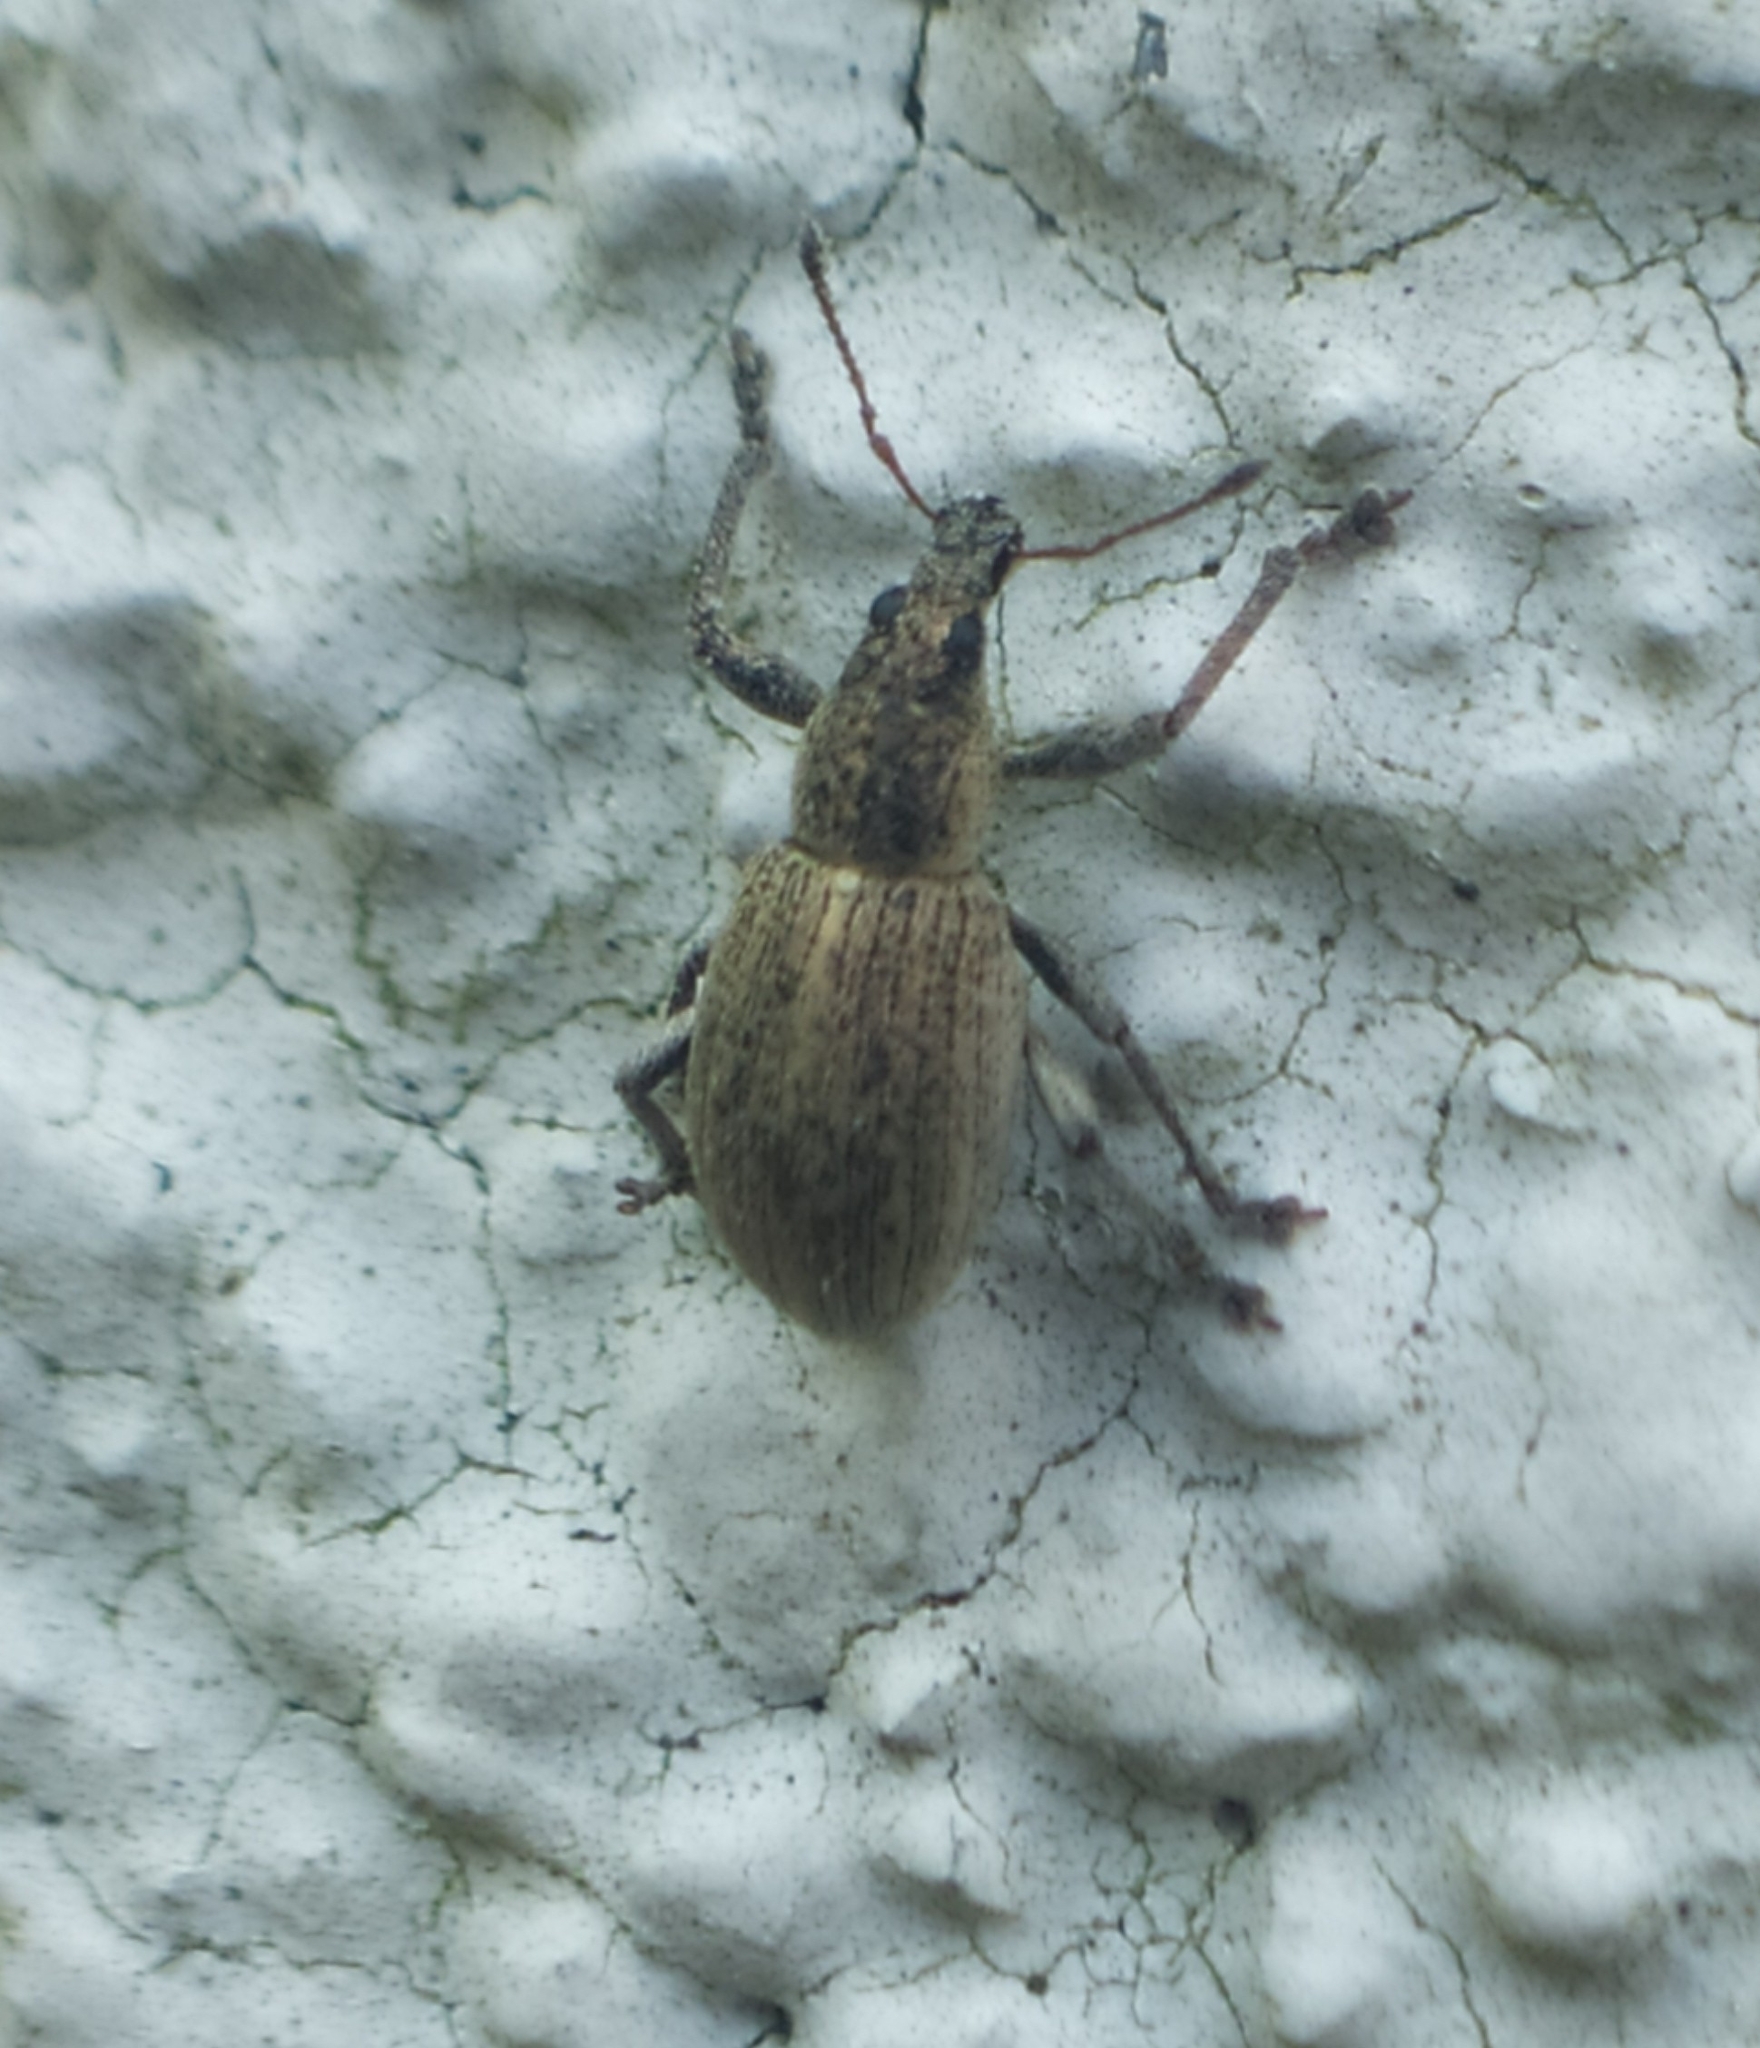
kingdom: Animalia
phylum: Arthropoda
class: Insecta
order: Coleoptera
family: Curculionidae
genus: Sciaphobus
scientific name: Sciaphobus squalidus
